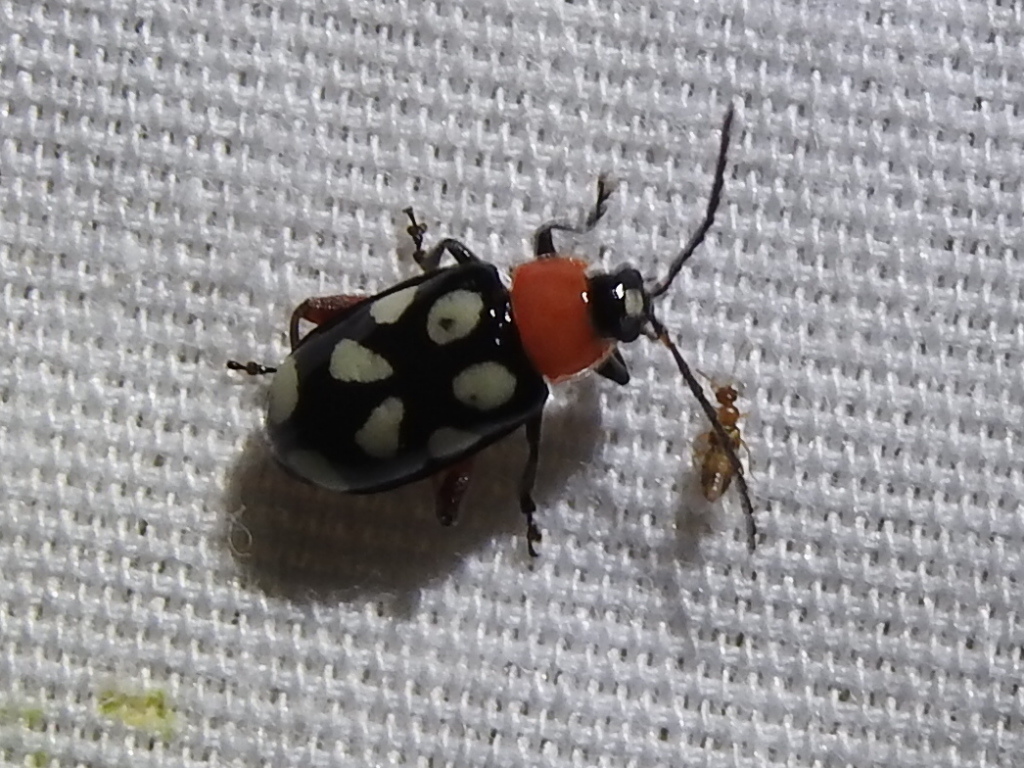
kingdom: Animalia
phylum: Arthropoda
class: Insecta
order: Coleoptera
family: Chrysomelidae
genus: Omophoita
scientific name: Omophoita cyanipennis
